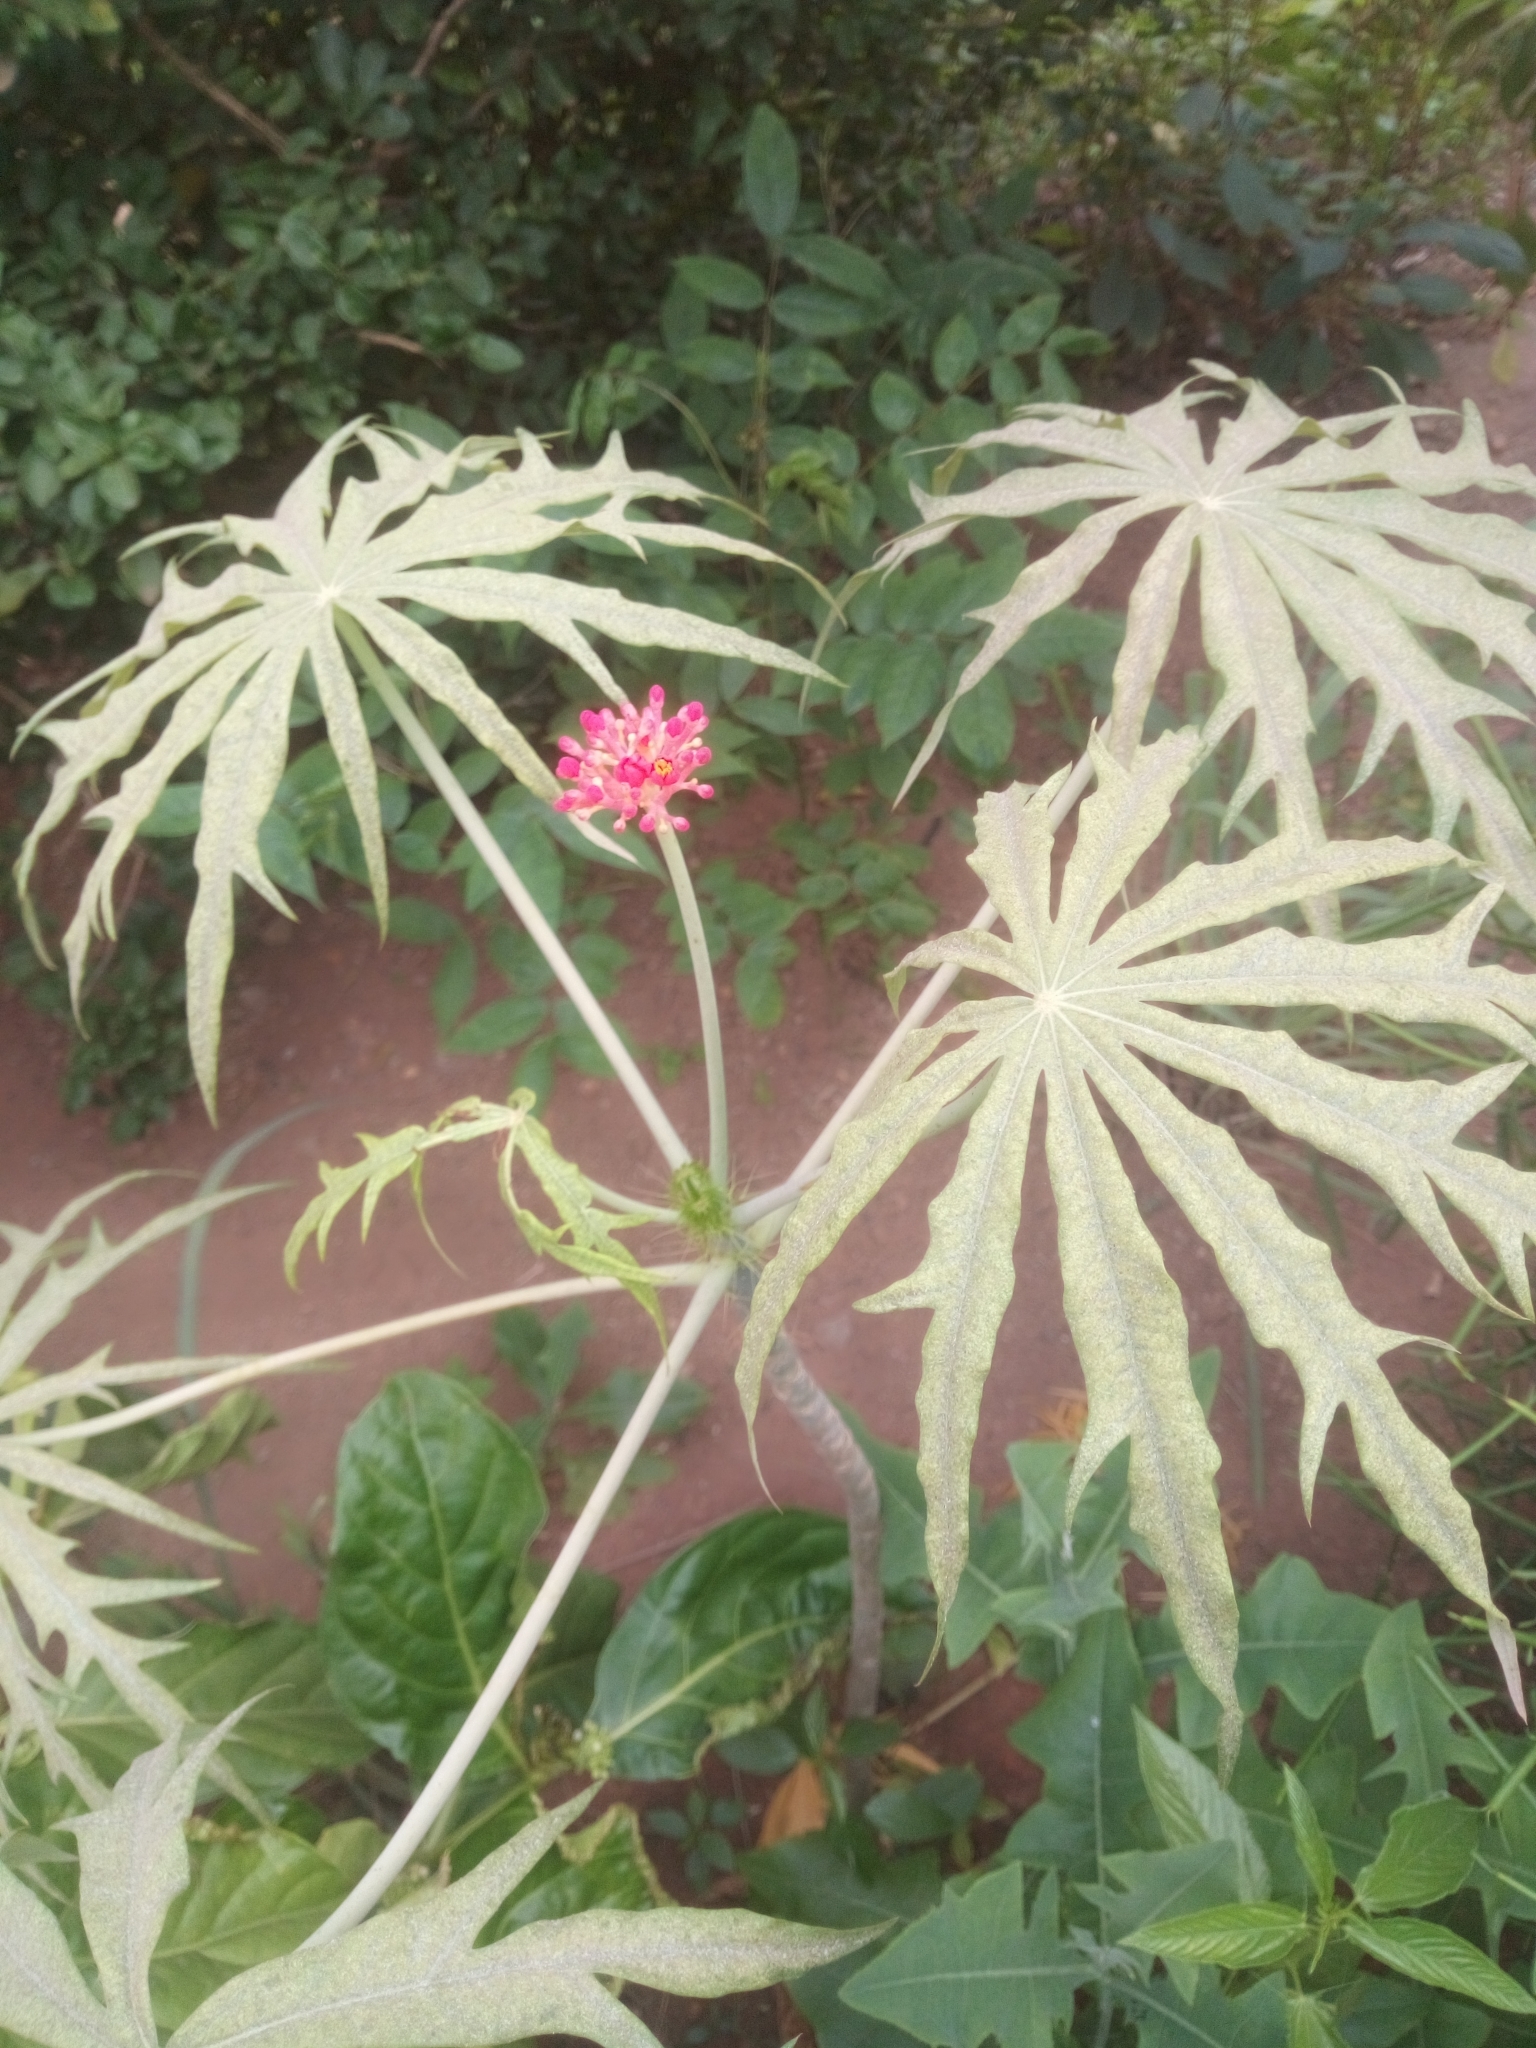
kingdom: Plantae
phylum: Tracheophyta
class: Magnoliopsida
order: Malpighiales
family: Euphorbiaceae
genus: Jatropha
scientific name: Jatropha multifida
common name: Coralbush
